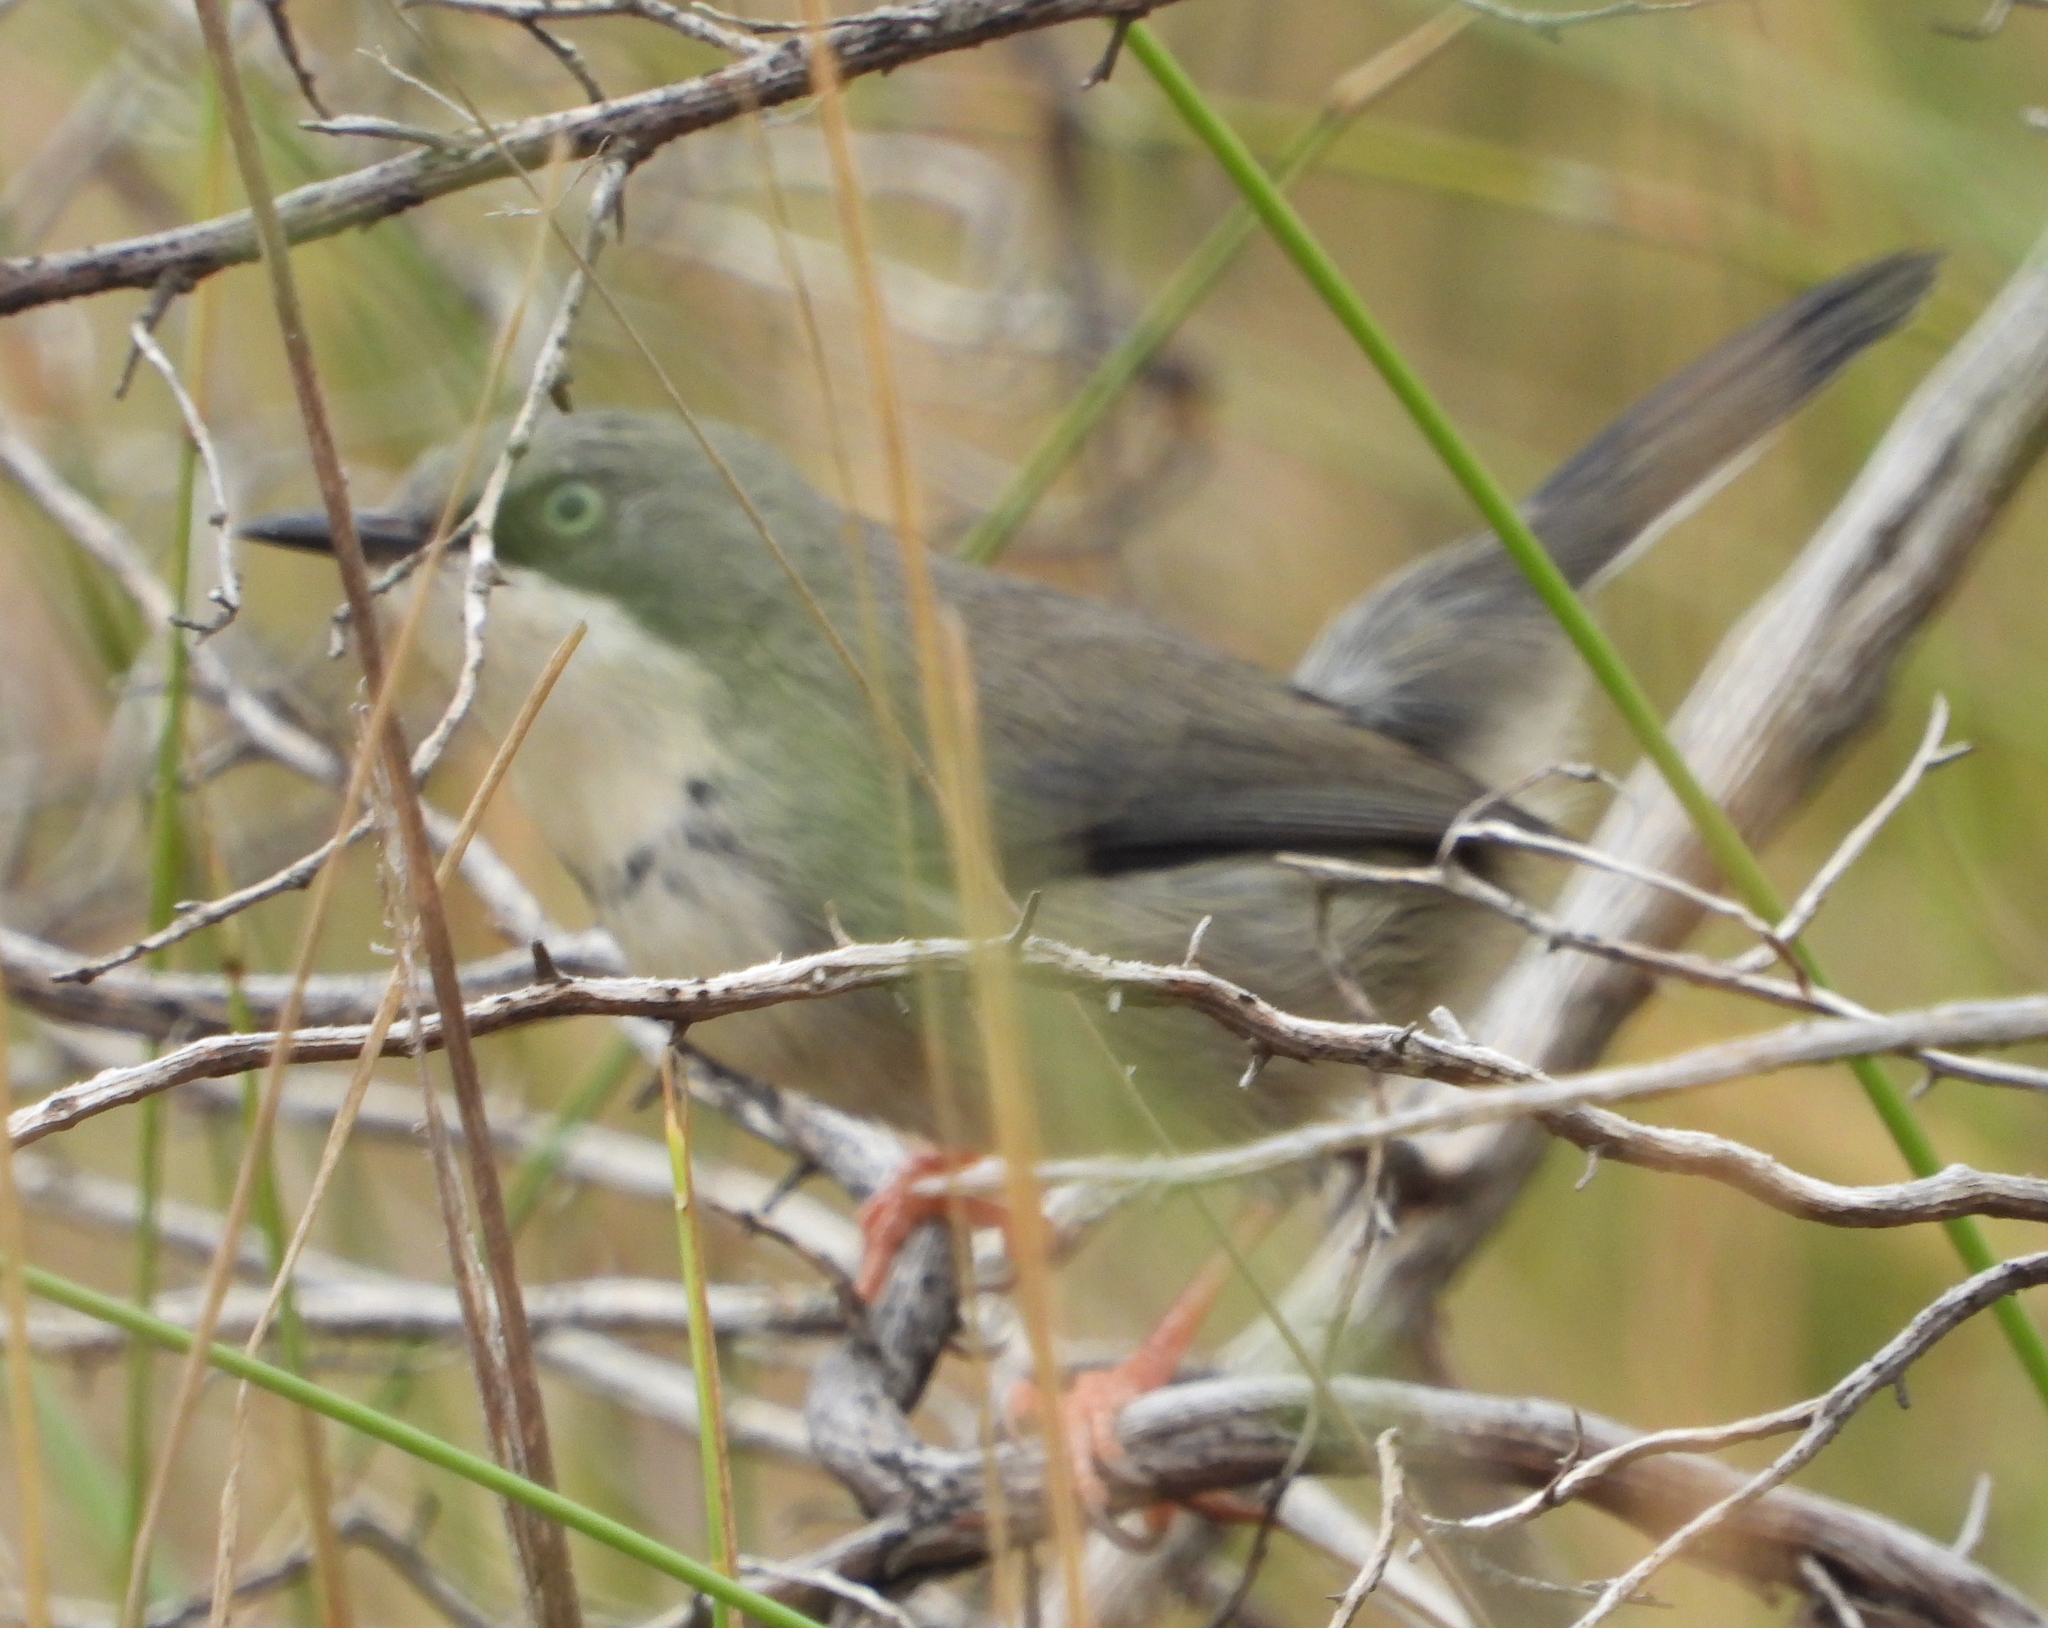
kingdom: Animalia
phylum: Chordata
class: Aves
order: Passeriformes
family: Cisticolidae
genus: Apalis
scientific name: Apalis thoracica
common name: Bar-throated apalis
